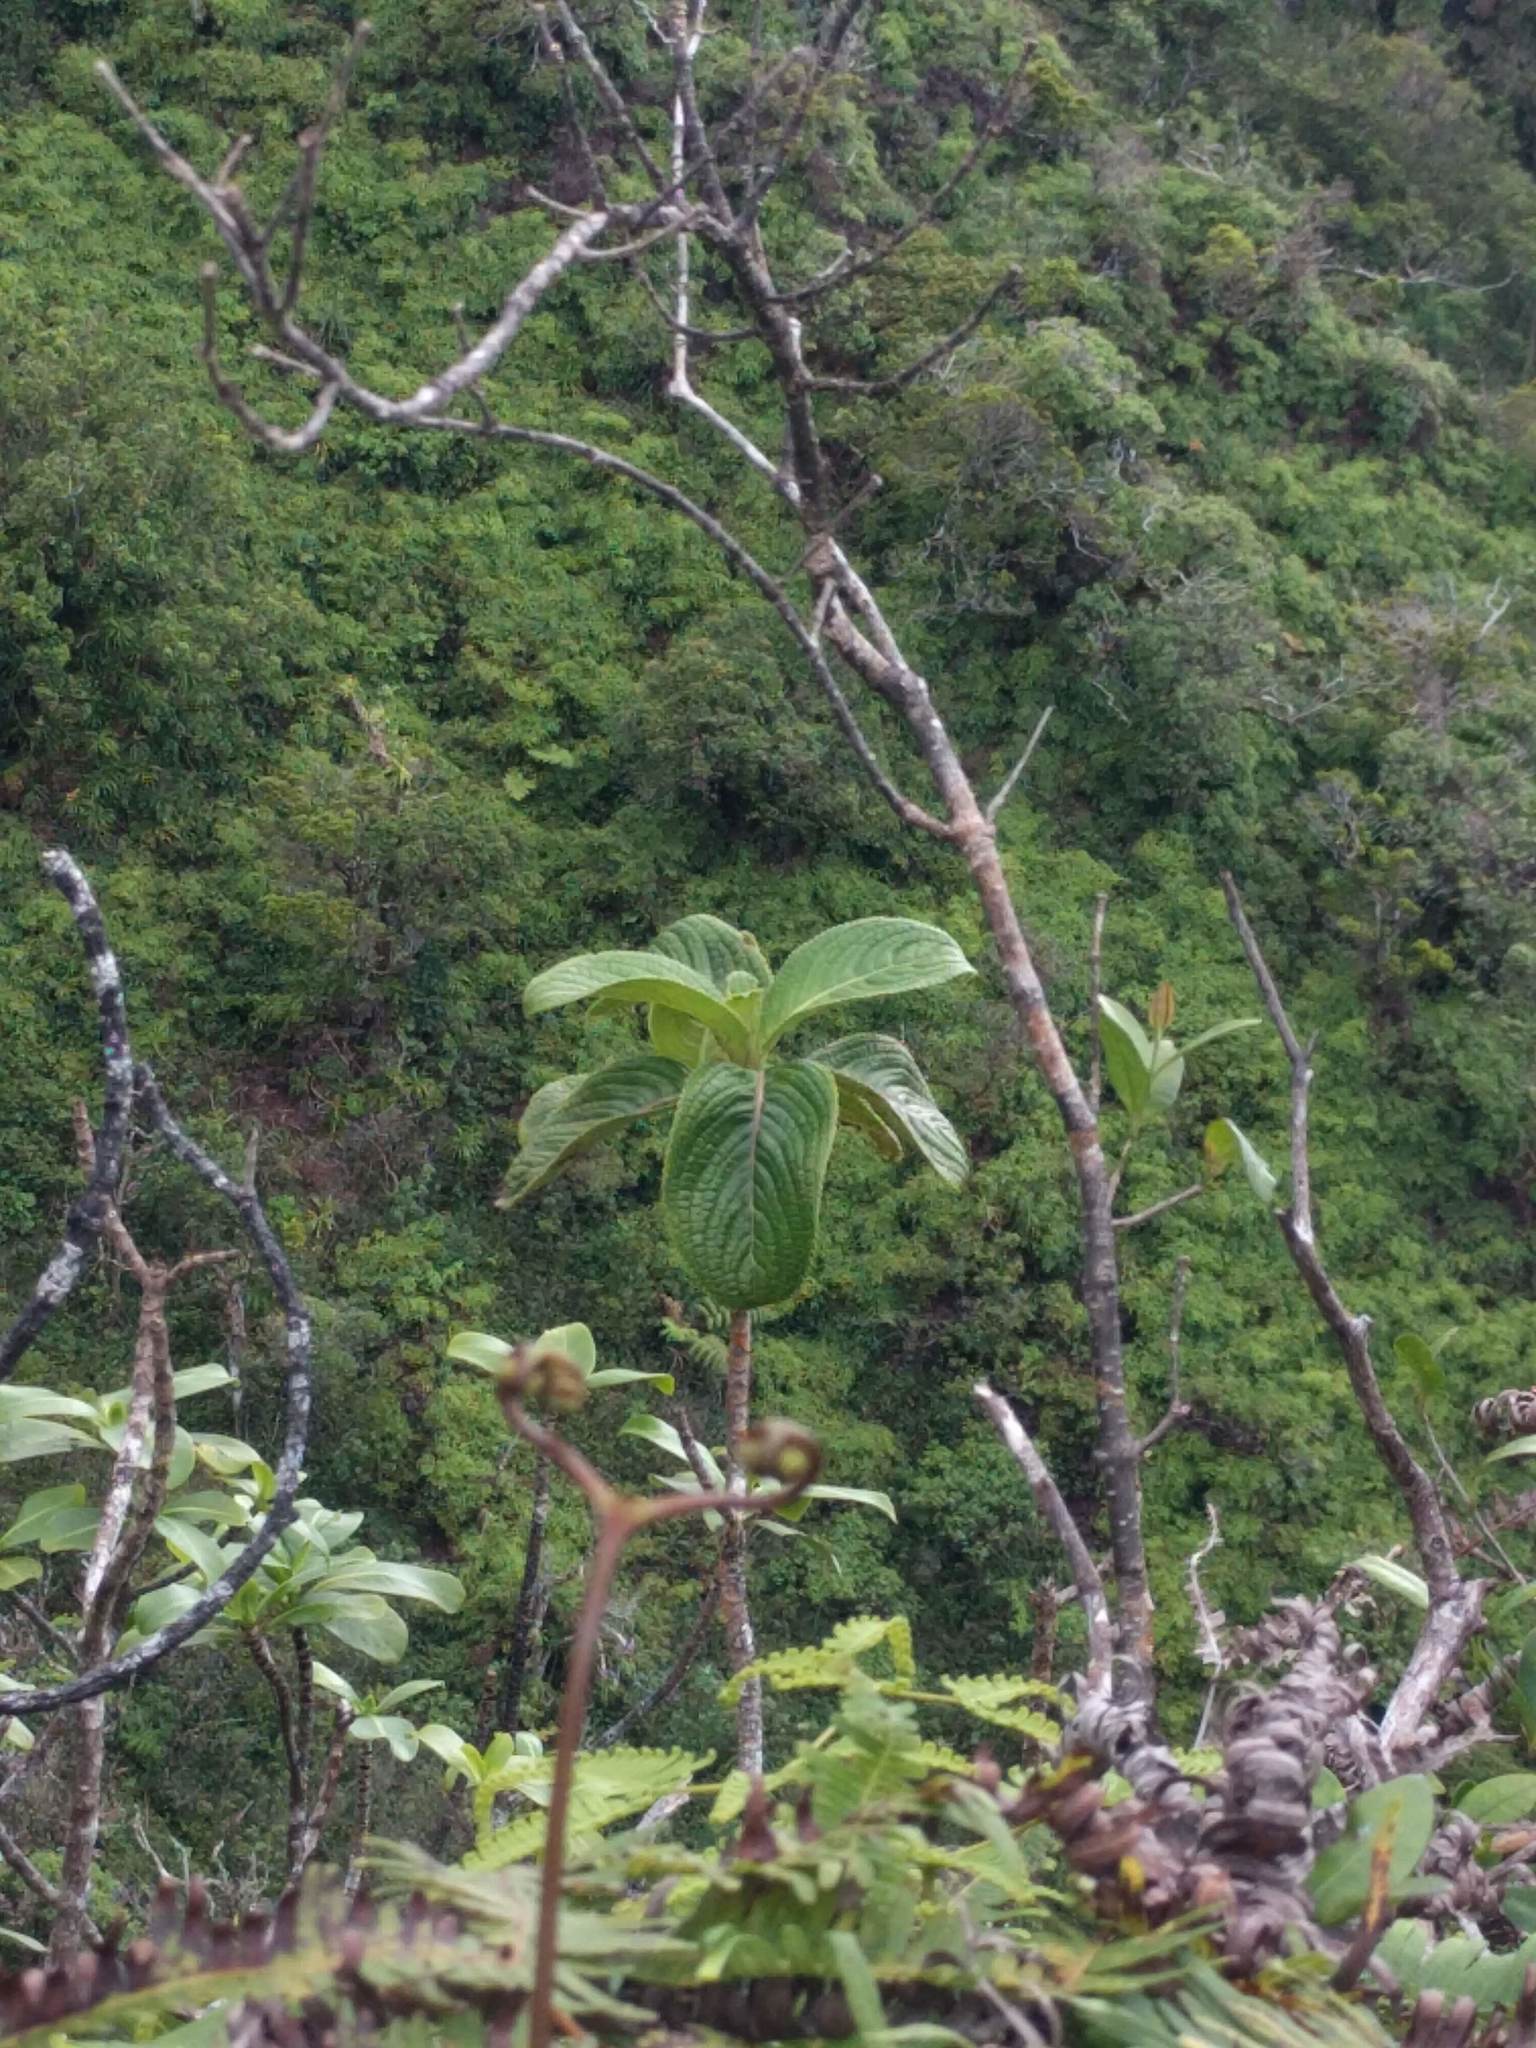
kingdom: Plantae
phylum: Tracheophyta
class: Magnoliopsida
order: Cornales
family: Hydrangeaceae
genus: Hydrangea
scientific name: Hydrangea arguta
